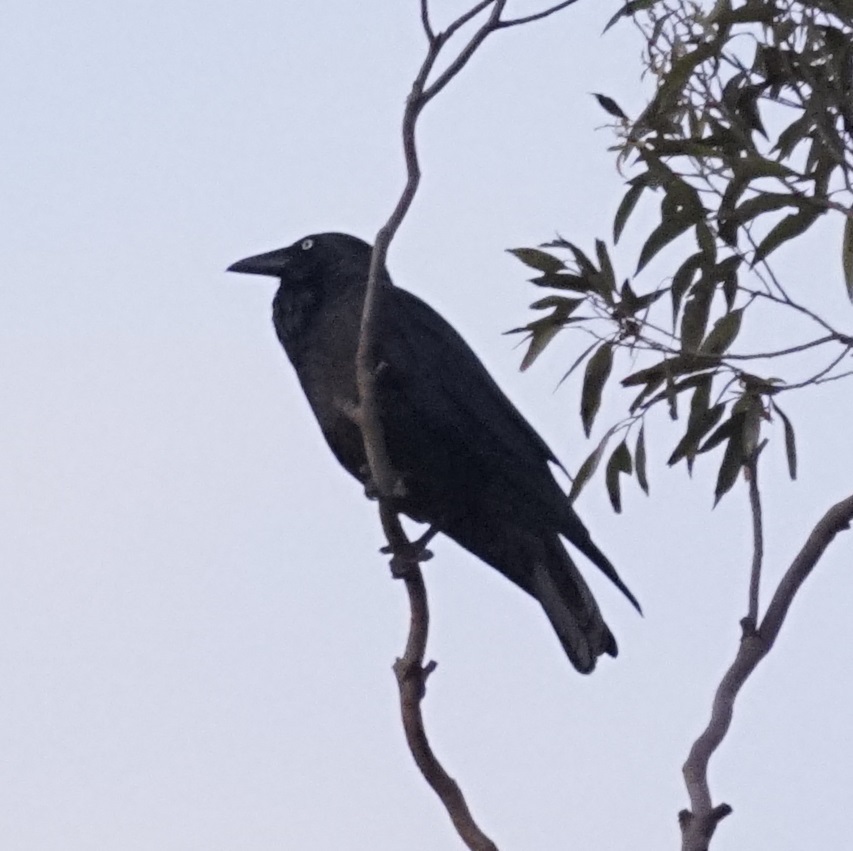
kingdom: Animalia
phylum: Chordata
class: Aves
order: Passeriformes
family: Corvidae
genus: Corvus
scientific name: Corvus coronoides
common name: Australian raven
